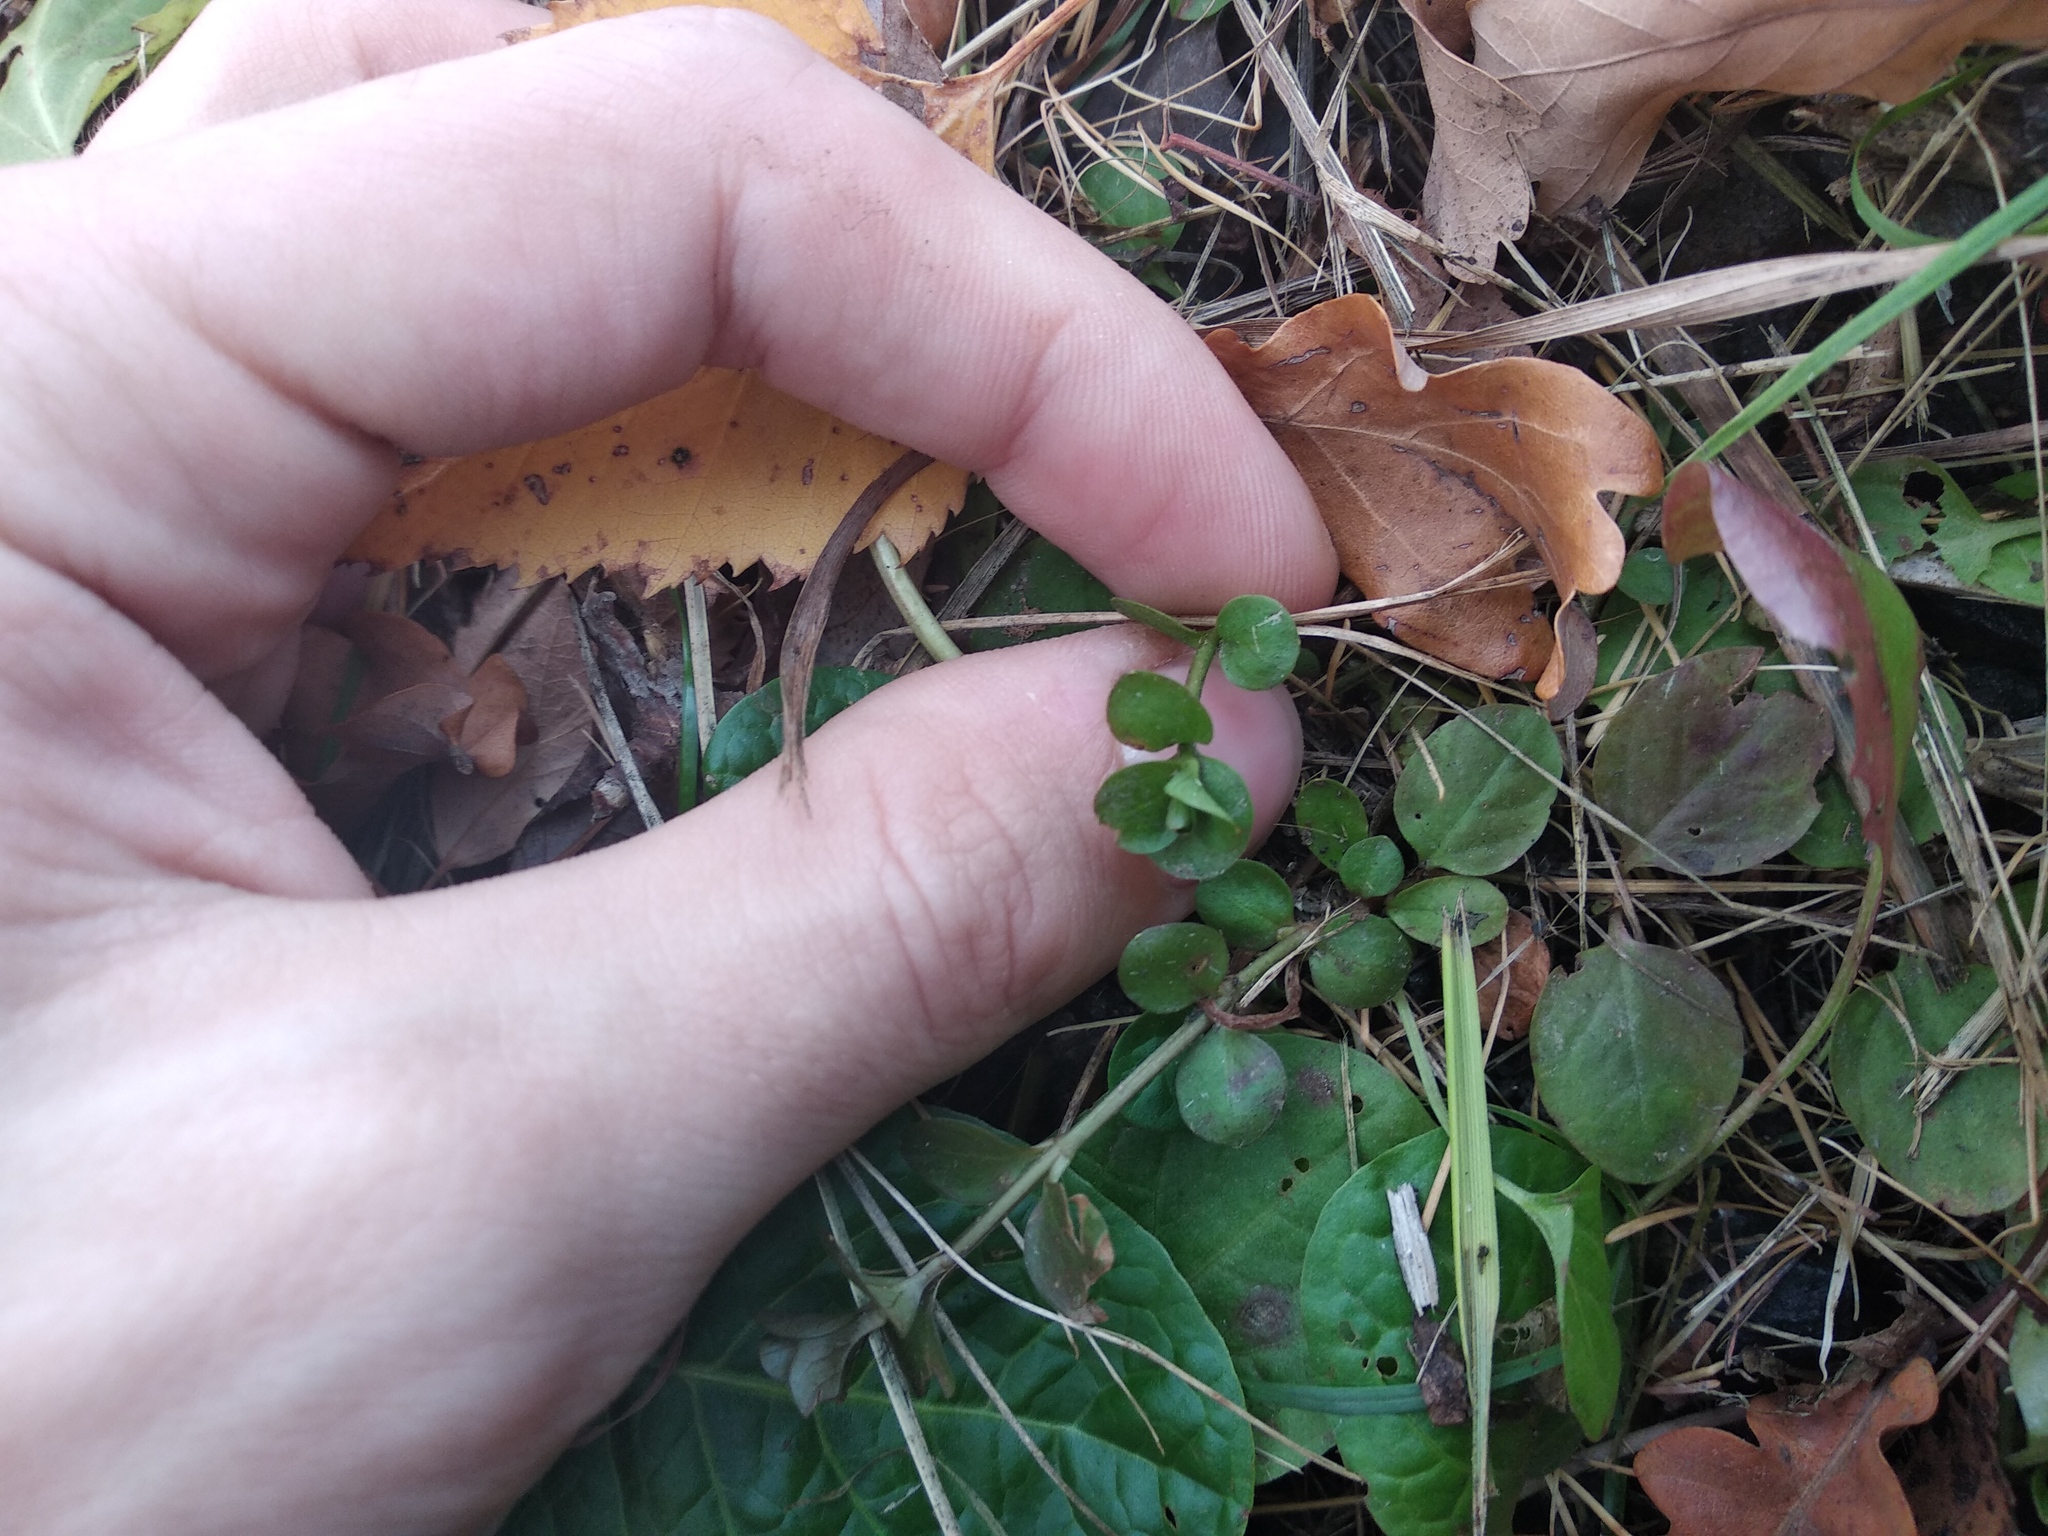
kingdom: Plantae
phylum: Tracheophyta
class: Magnoliopsida
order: Ericales
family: Primulaceae
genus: Lysimachia
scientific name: Lysimachia nummularia
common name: Moneywort
